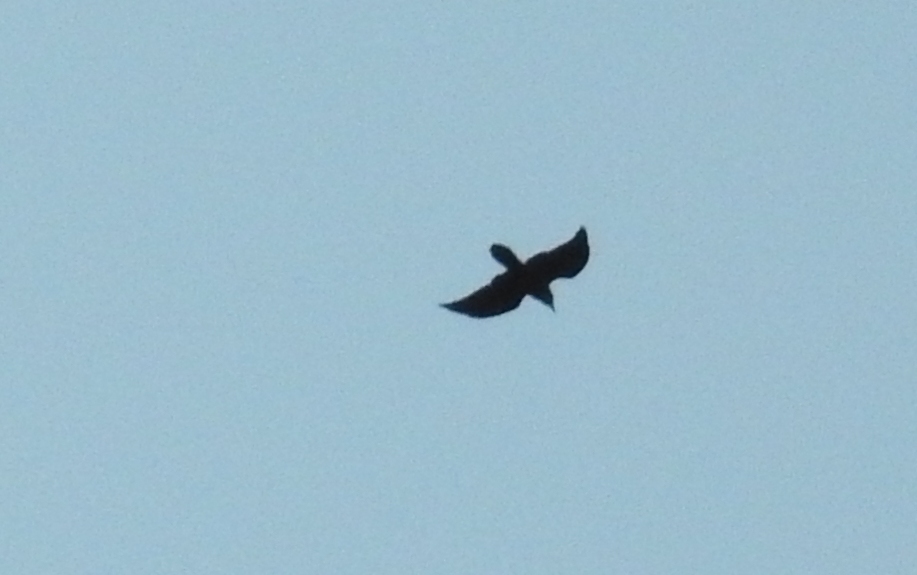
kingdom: Animalia
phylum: Chordata
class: Aves
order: Passeriformes
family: Corvidae
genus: Corvus
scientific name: Corvus corax
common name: Common raven
